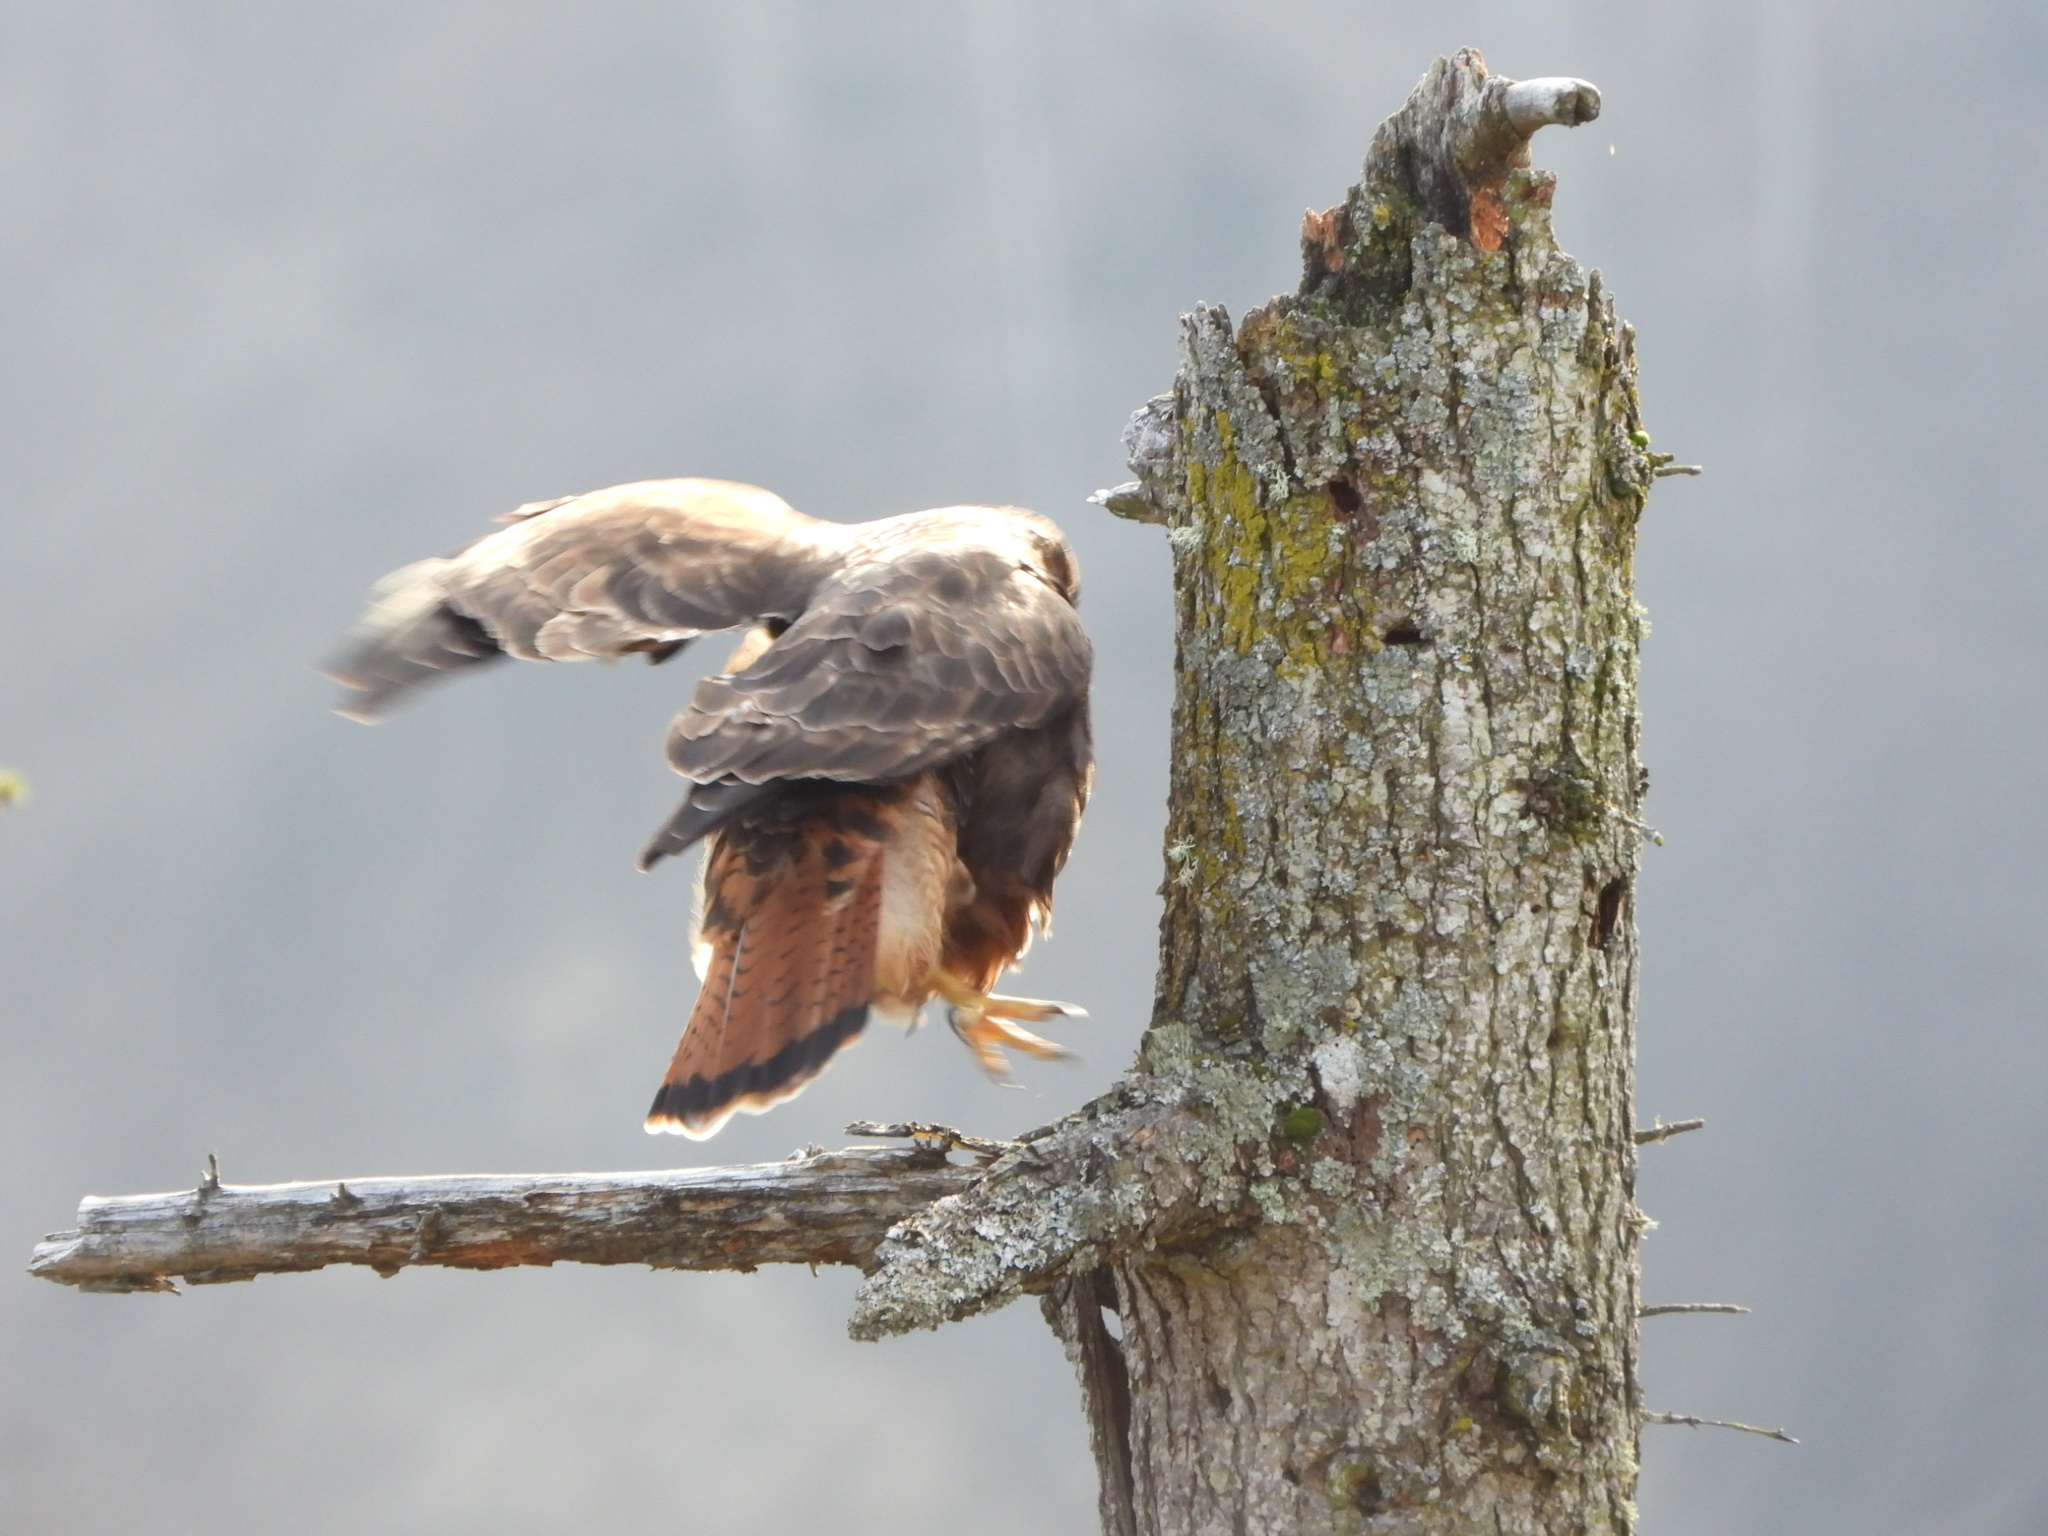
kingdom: Animalia
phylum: Chordata
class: Aves
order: Accipitriformes
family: Accipitridae
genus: Buteo
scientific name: Buteo jamaicensis
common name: Red-tailed hawk
